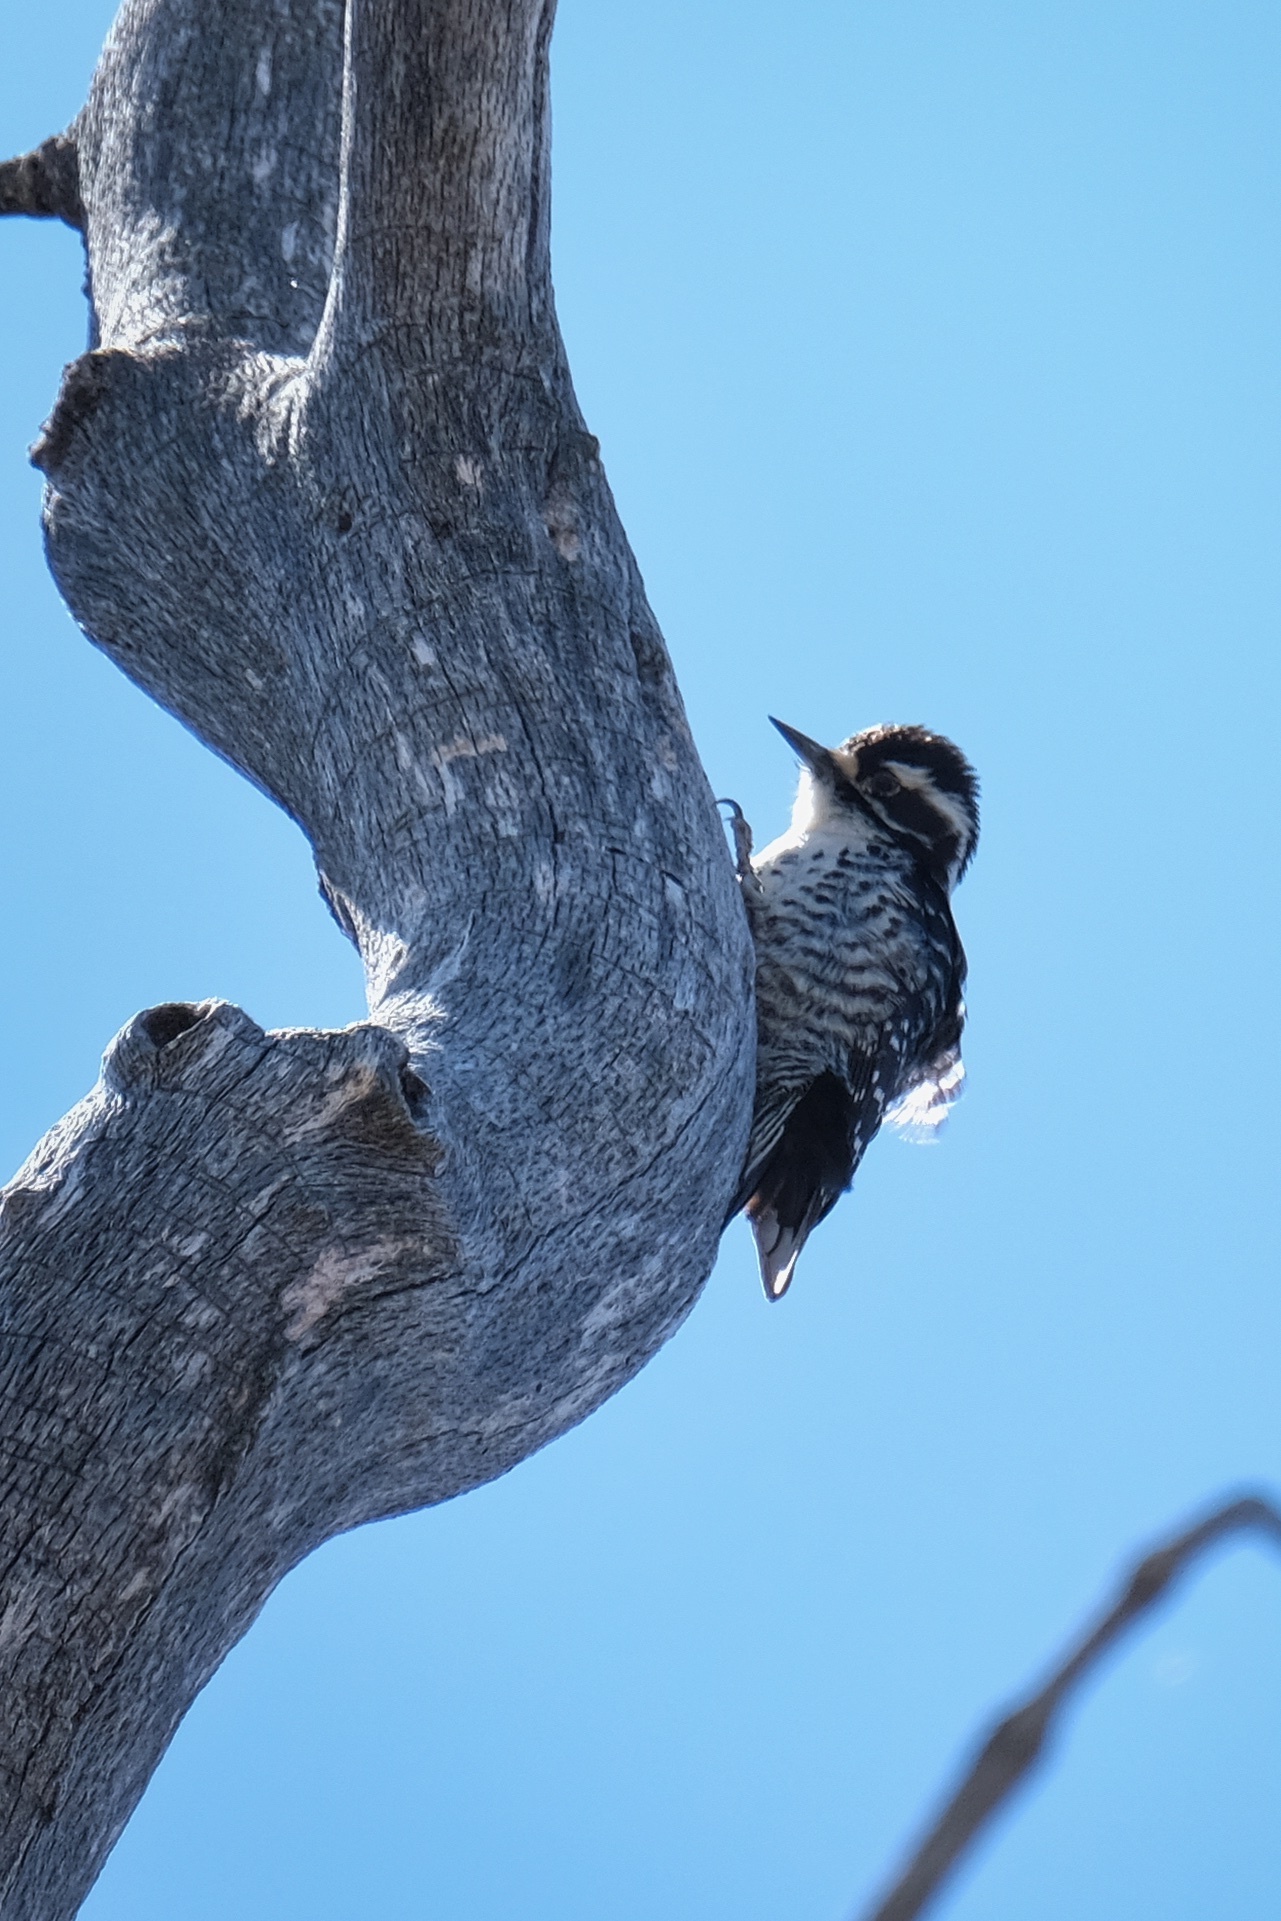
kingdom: Animalia
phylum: Chordata
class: Aves
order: Piciformes
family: Picidae
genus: Dryobates
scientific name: Dryobates nuttallii
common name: Nuttall's woodpecker
